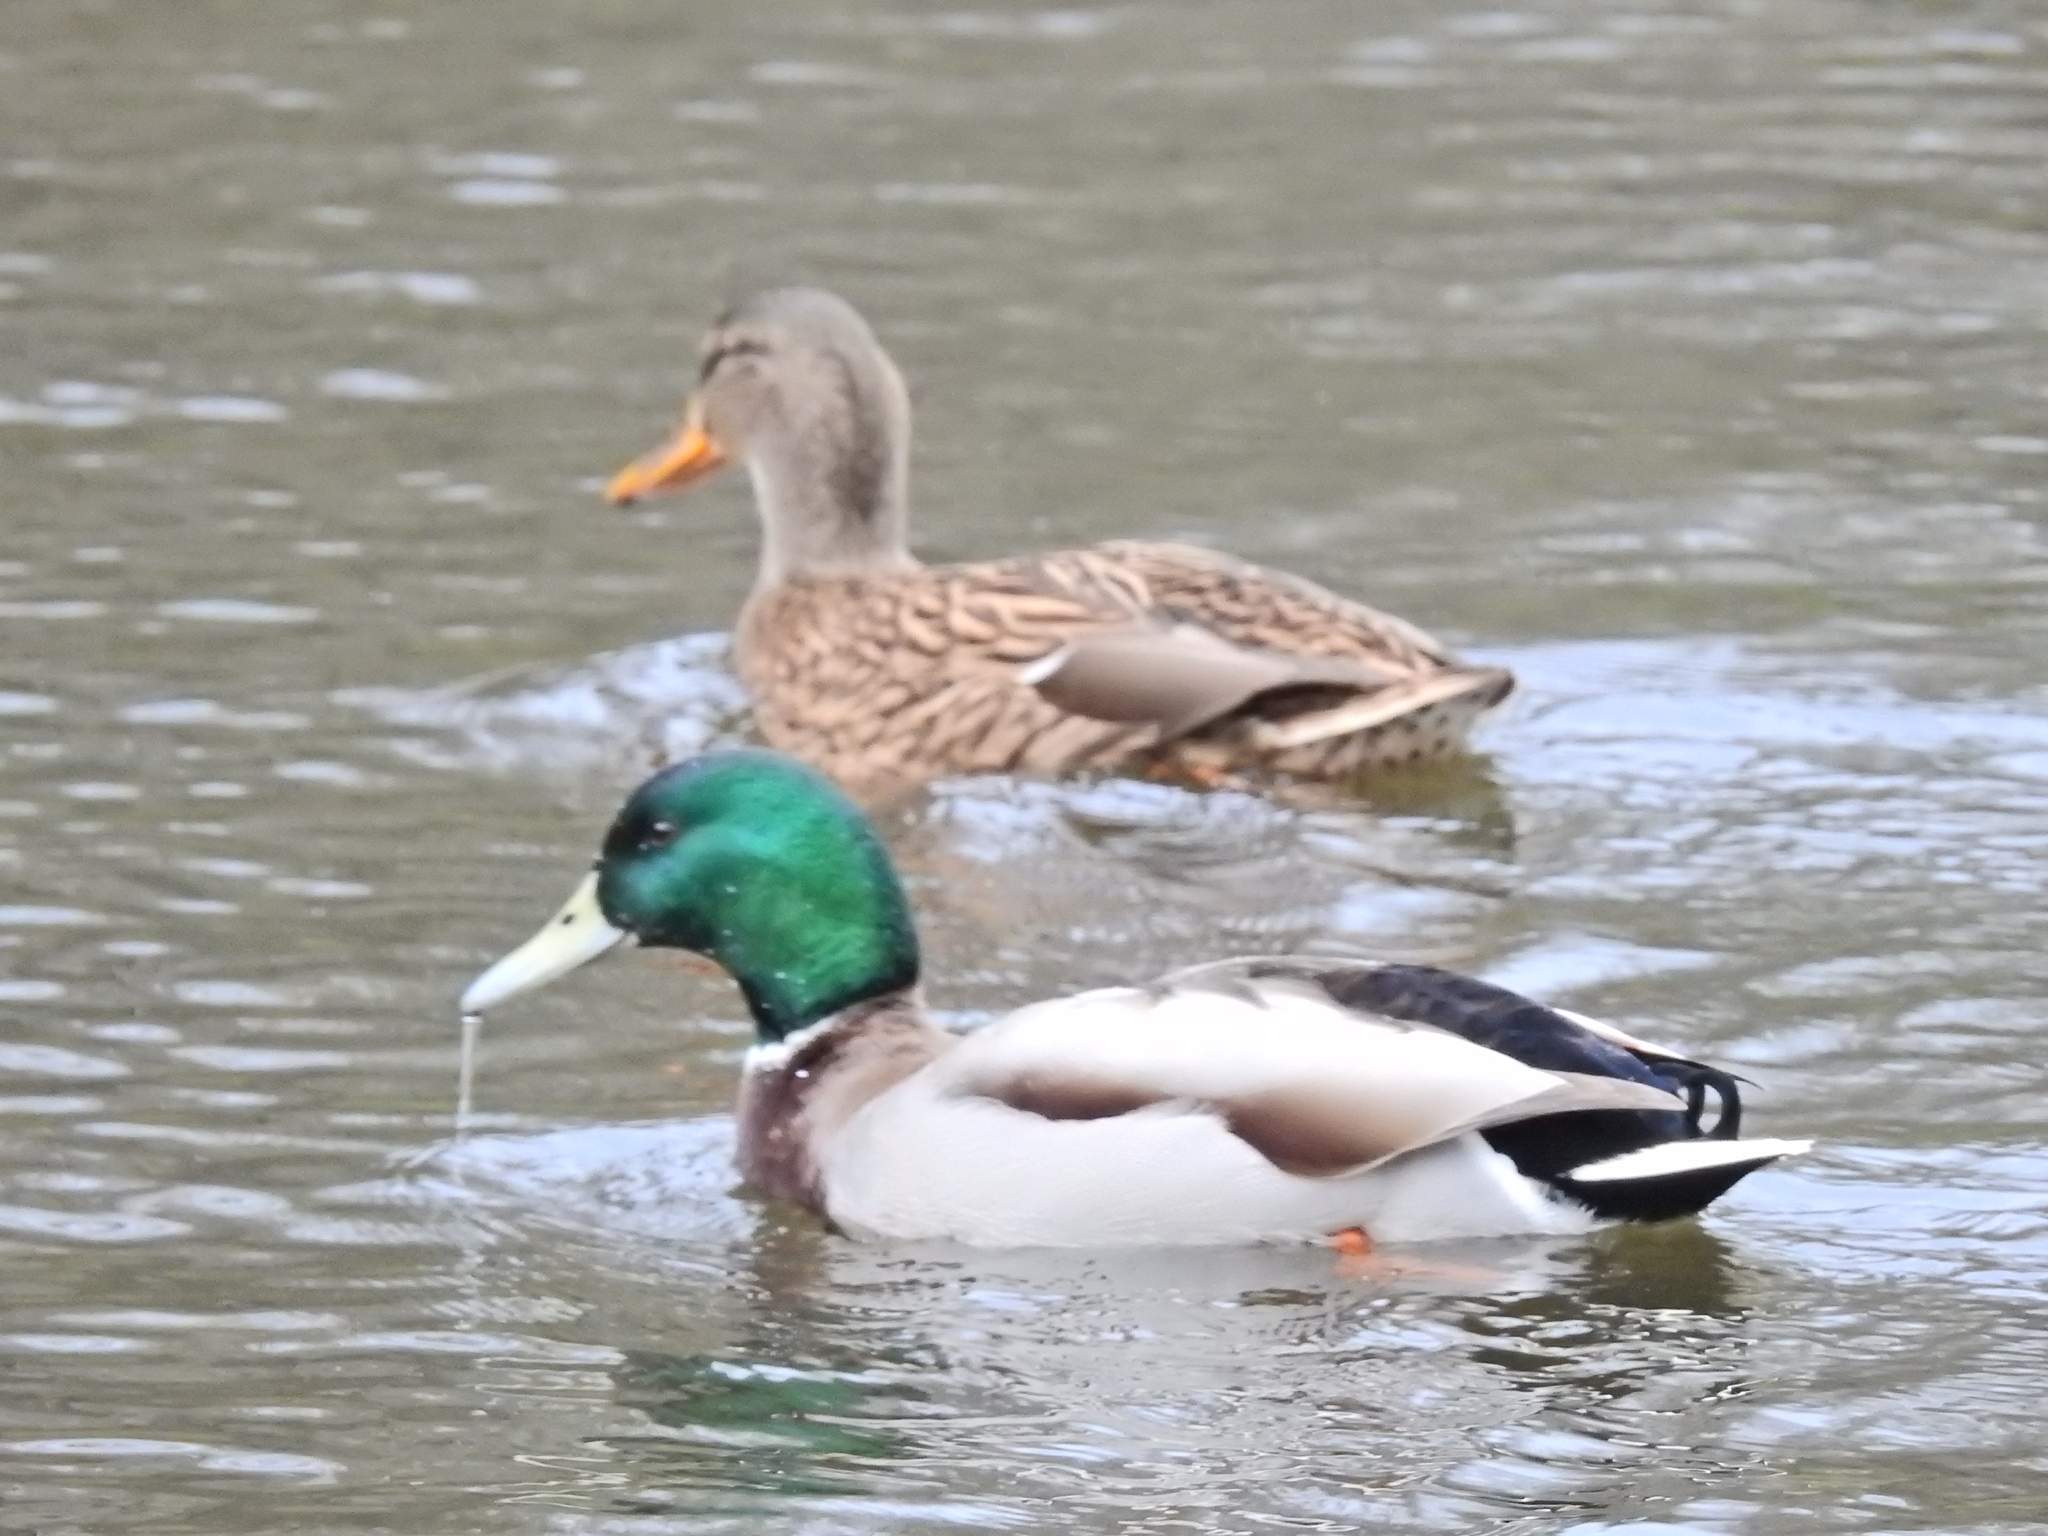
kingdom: Animalia
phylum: Chordata
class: Aves
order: Anseriformes
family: Anatidae
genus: Anas
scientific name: Anas platyrhynchos
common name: Mallard
